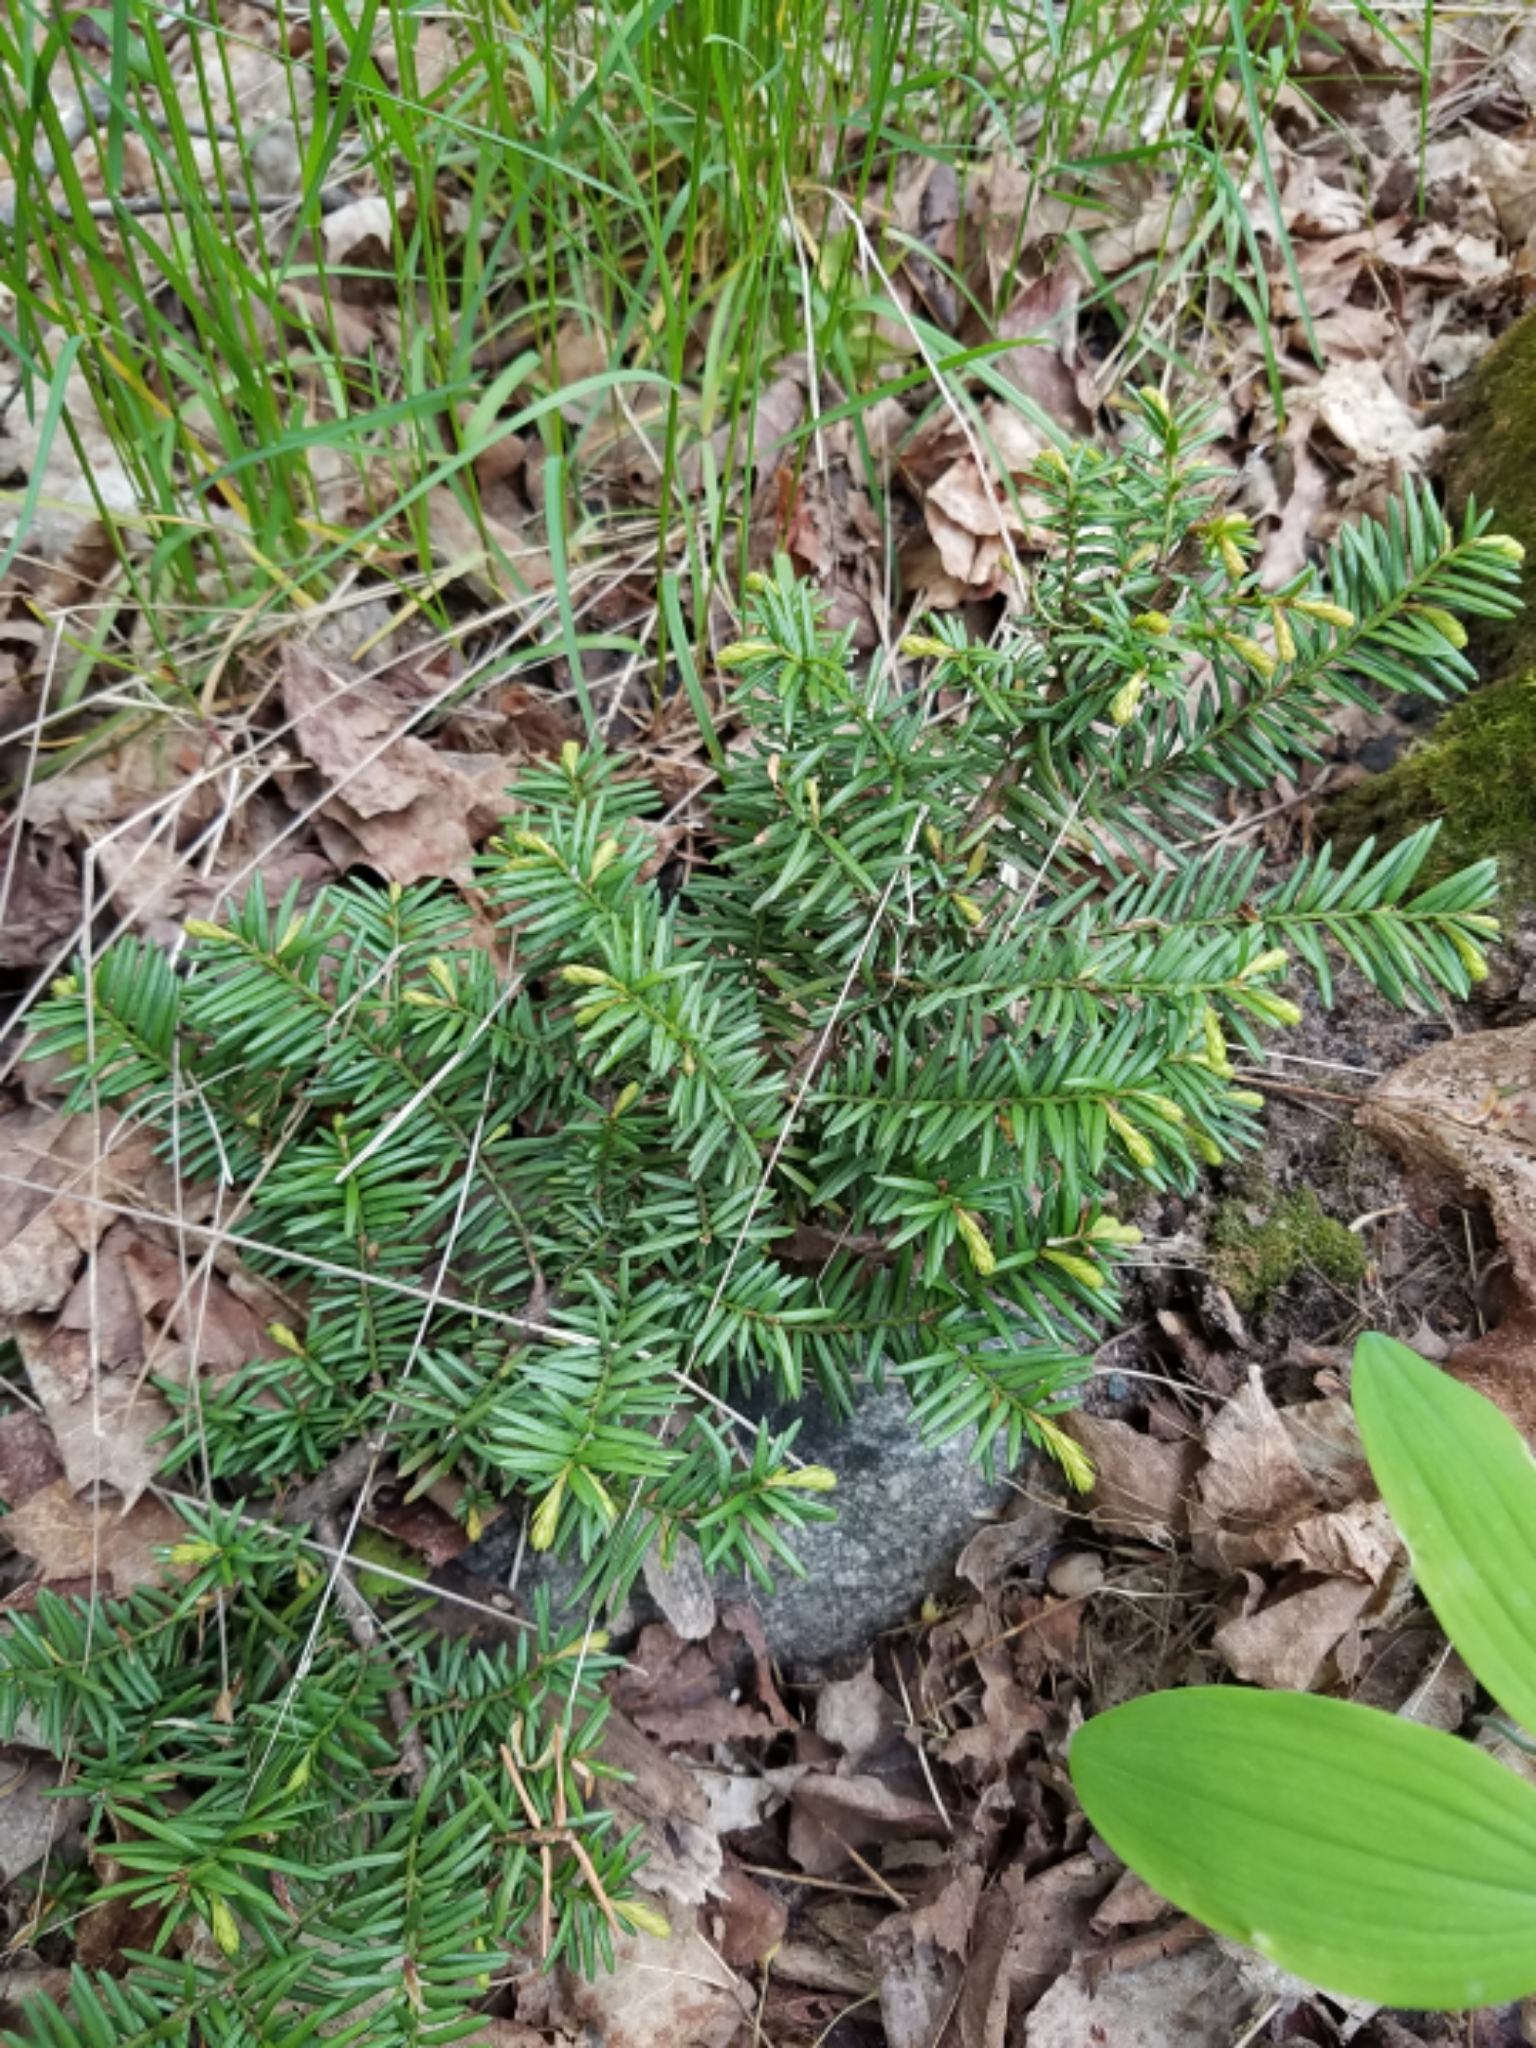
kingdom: Plantae
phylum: Tracheophyta
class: Pinopsida
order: Pinales
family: Taxaceae
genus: Taxus
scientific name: Taxus canadensis
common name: American yew
